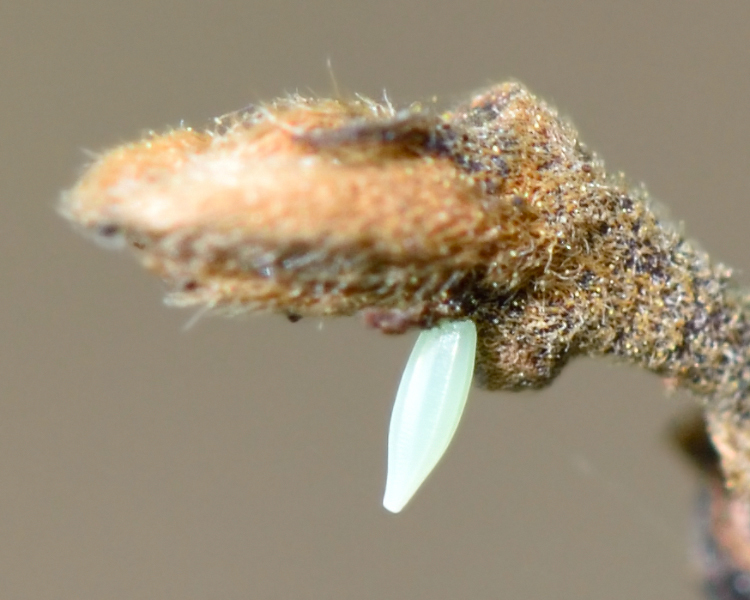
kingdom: Animalia
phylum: Arthropoda
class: Insecta
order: Lepidoptera
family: Pieridae
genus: Gonepteryx
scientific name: Gonepteryx rhamni
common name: Brimstone
